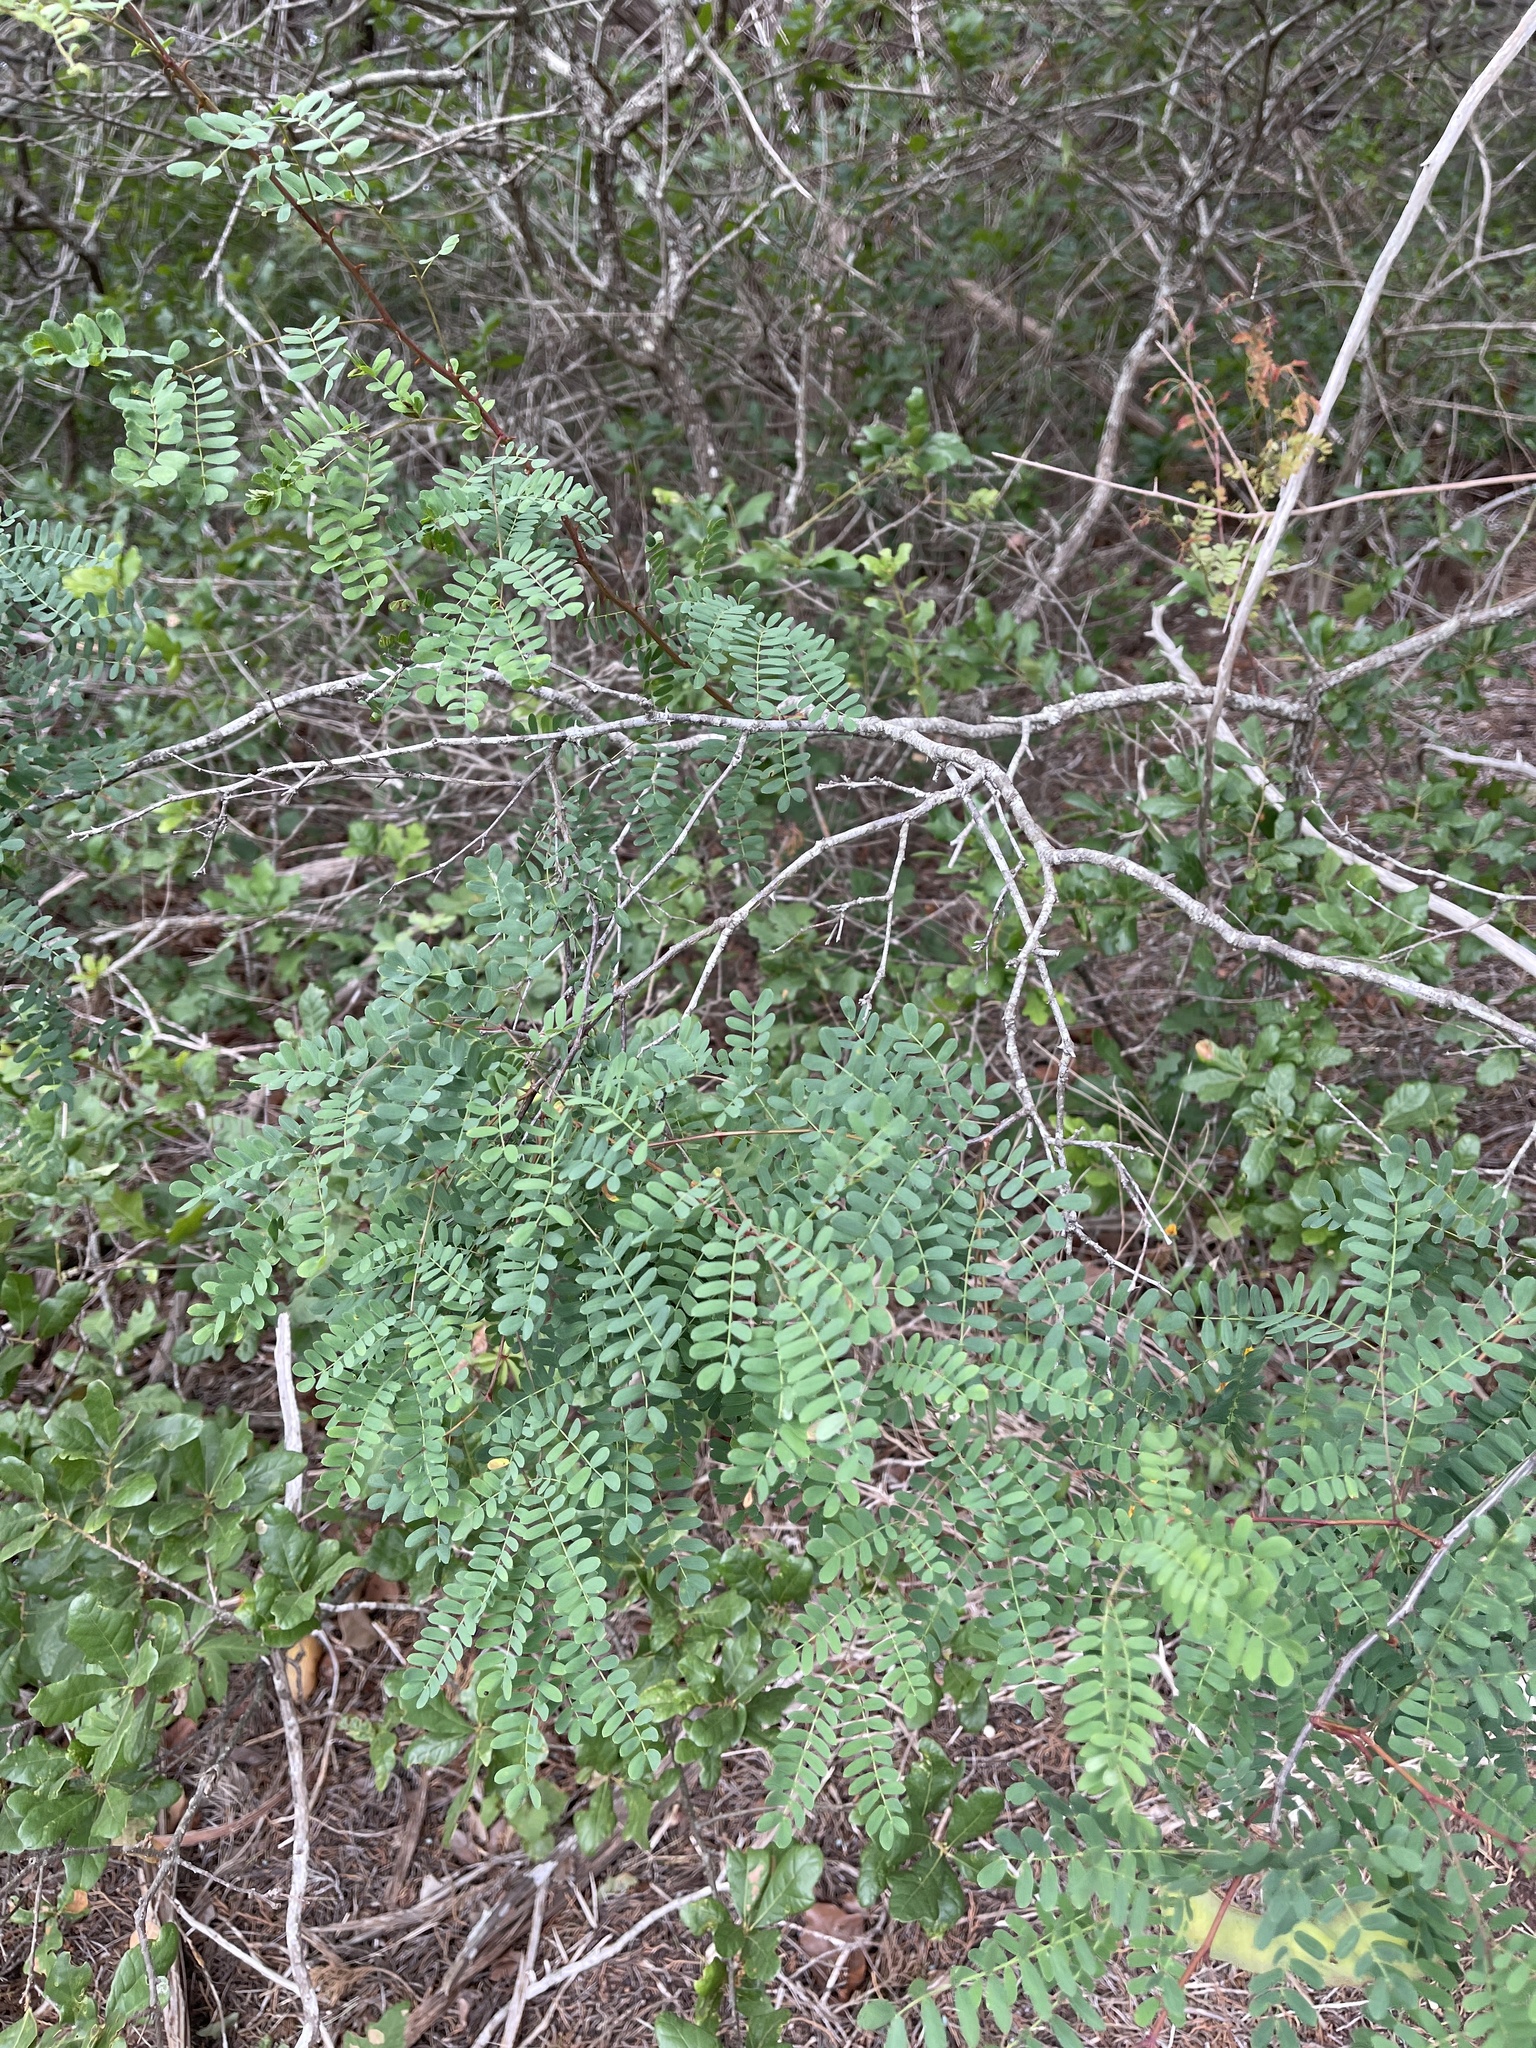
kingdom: Plantae
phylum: Tracheophyta
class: Magnoliopsida
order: Fabales
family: Fabaceae
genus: Senegalia
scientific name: Senegalia roemeriana
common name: Roemer's acacia
